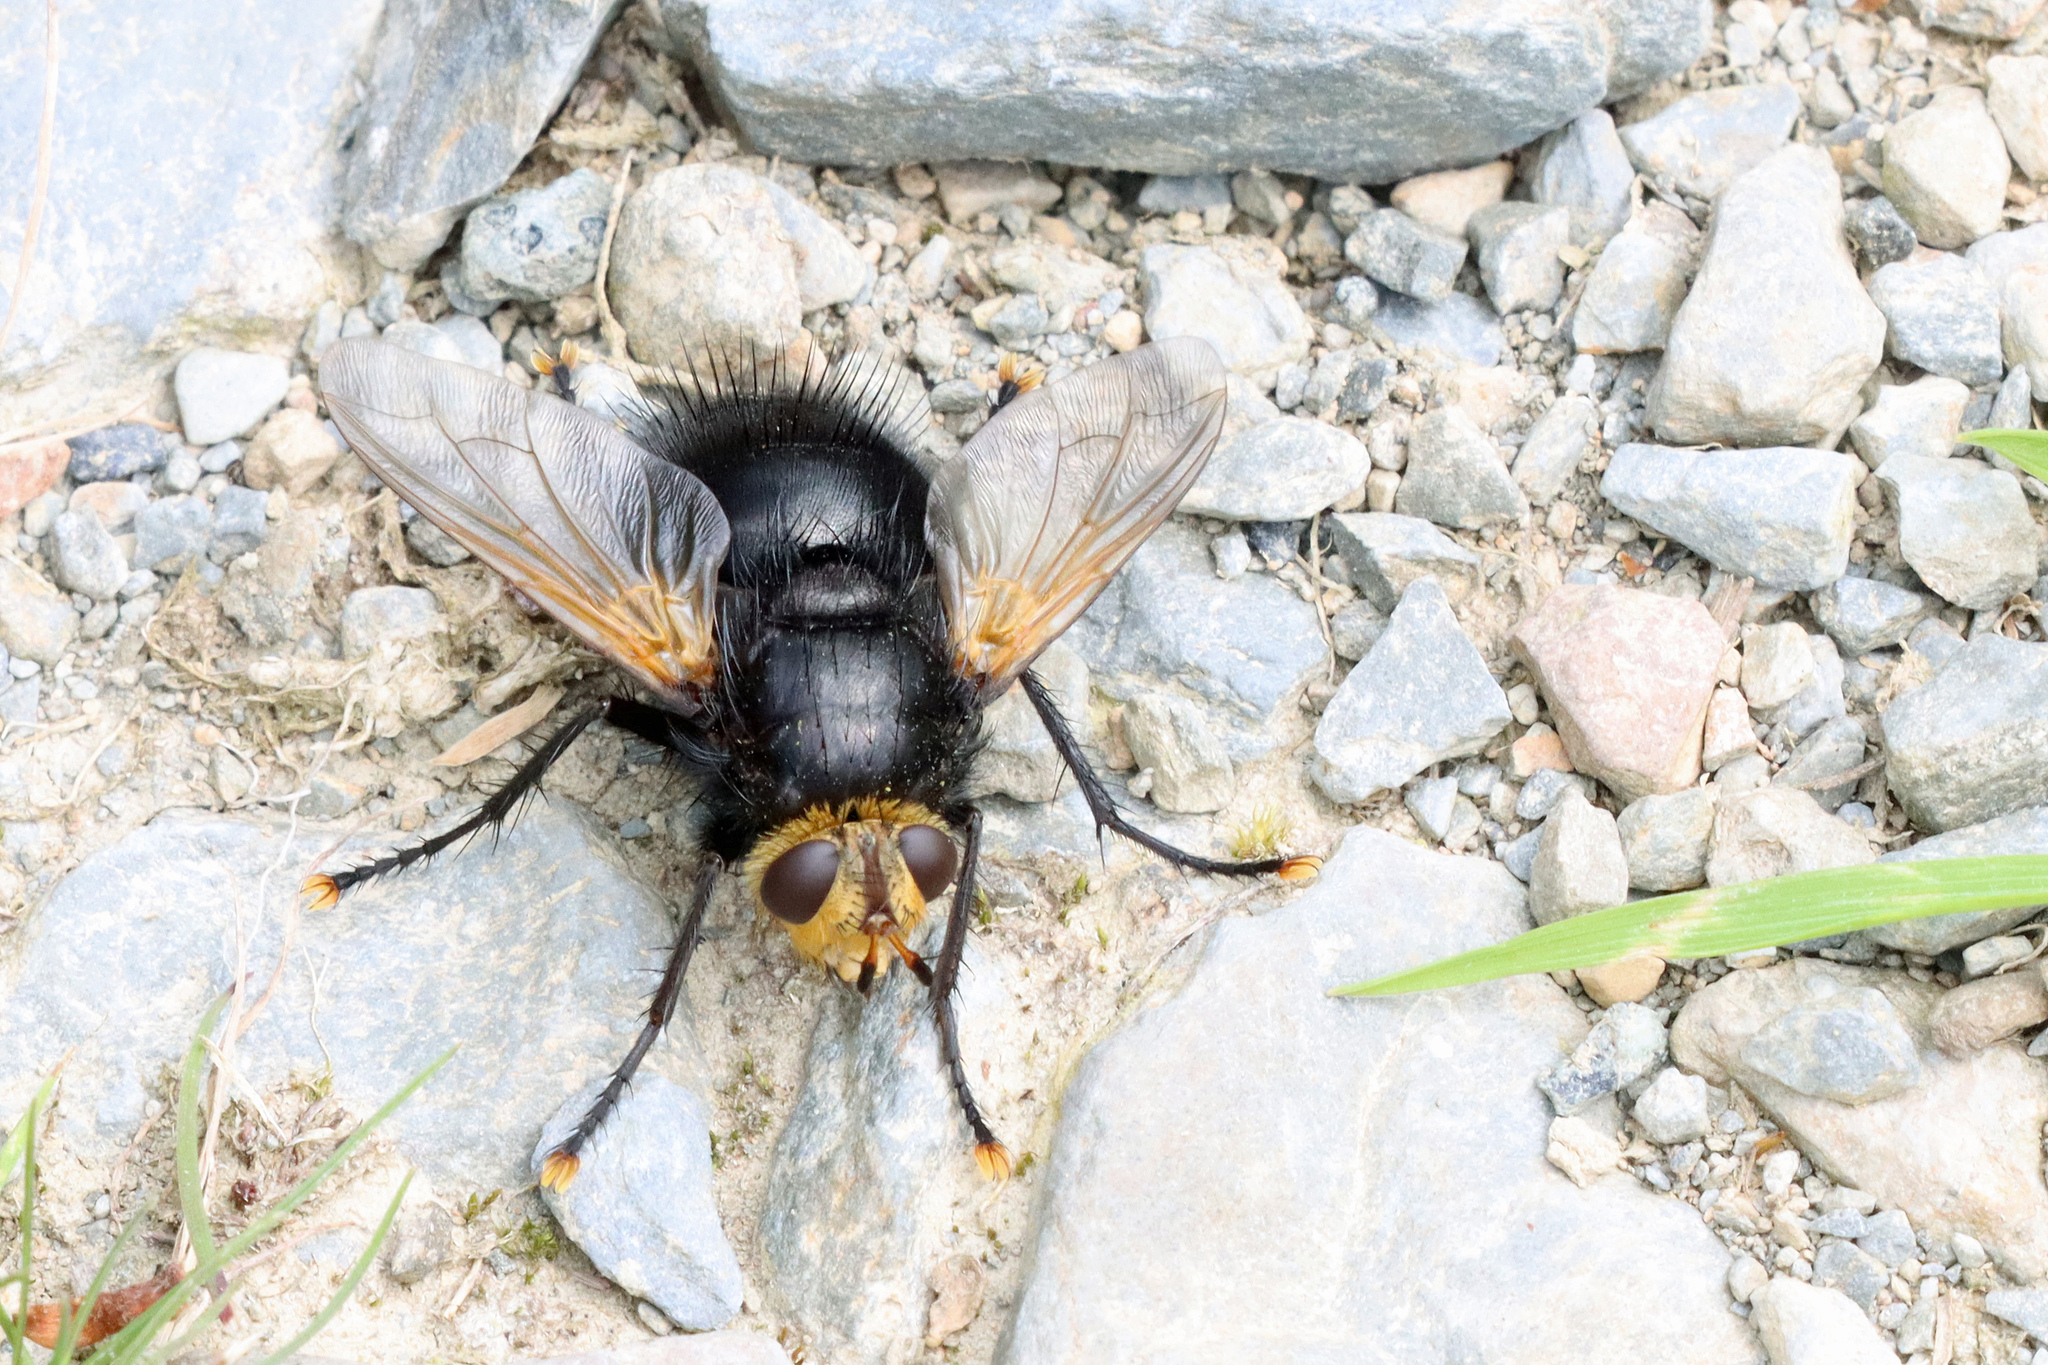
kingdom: Animalia
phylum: Arthropoda
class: Insecta
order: Diptera
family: Tachinidae
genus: Tachina
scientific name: Tachina grossa
